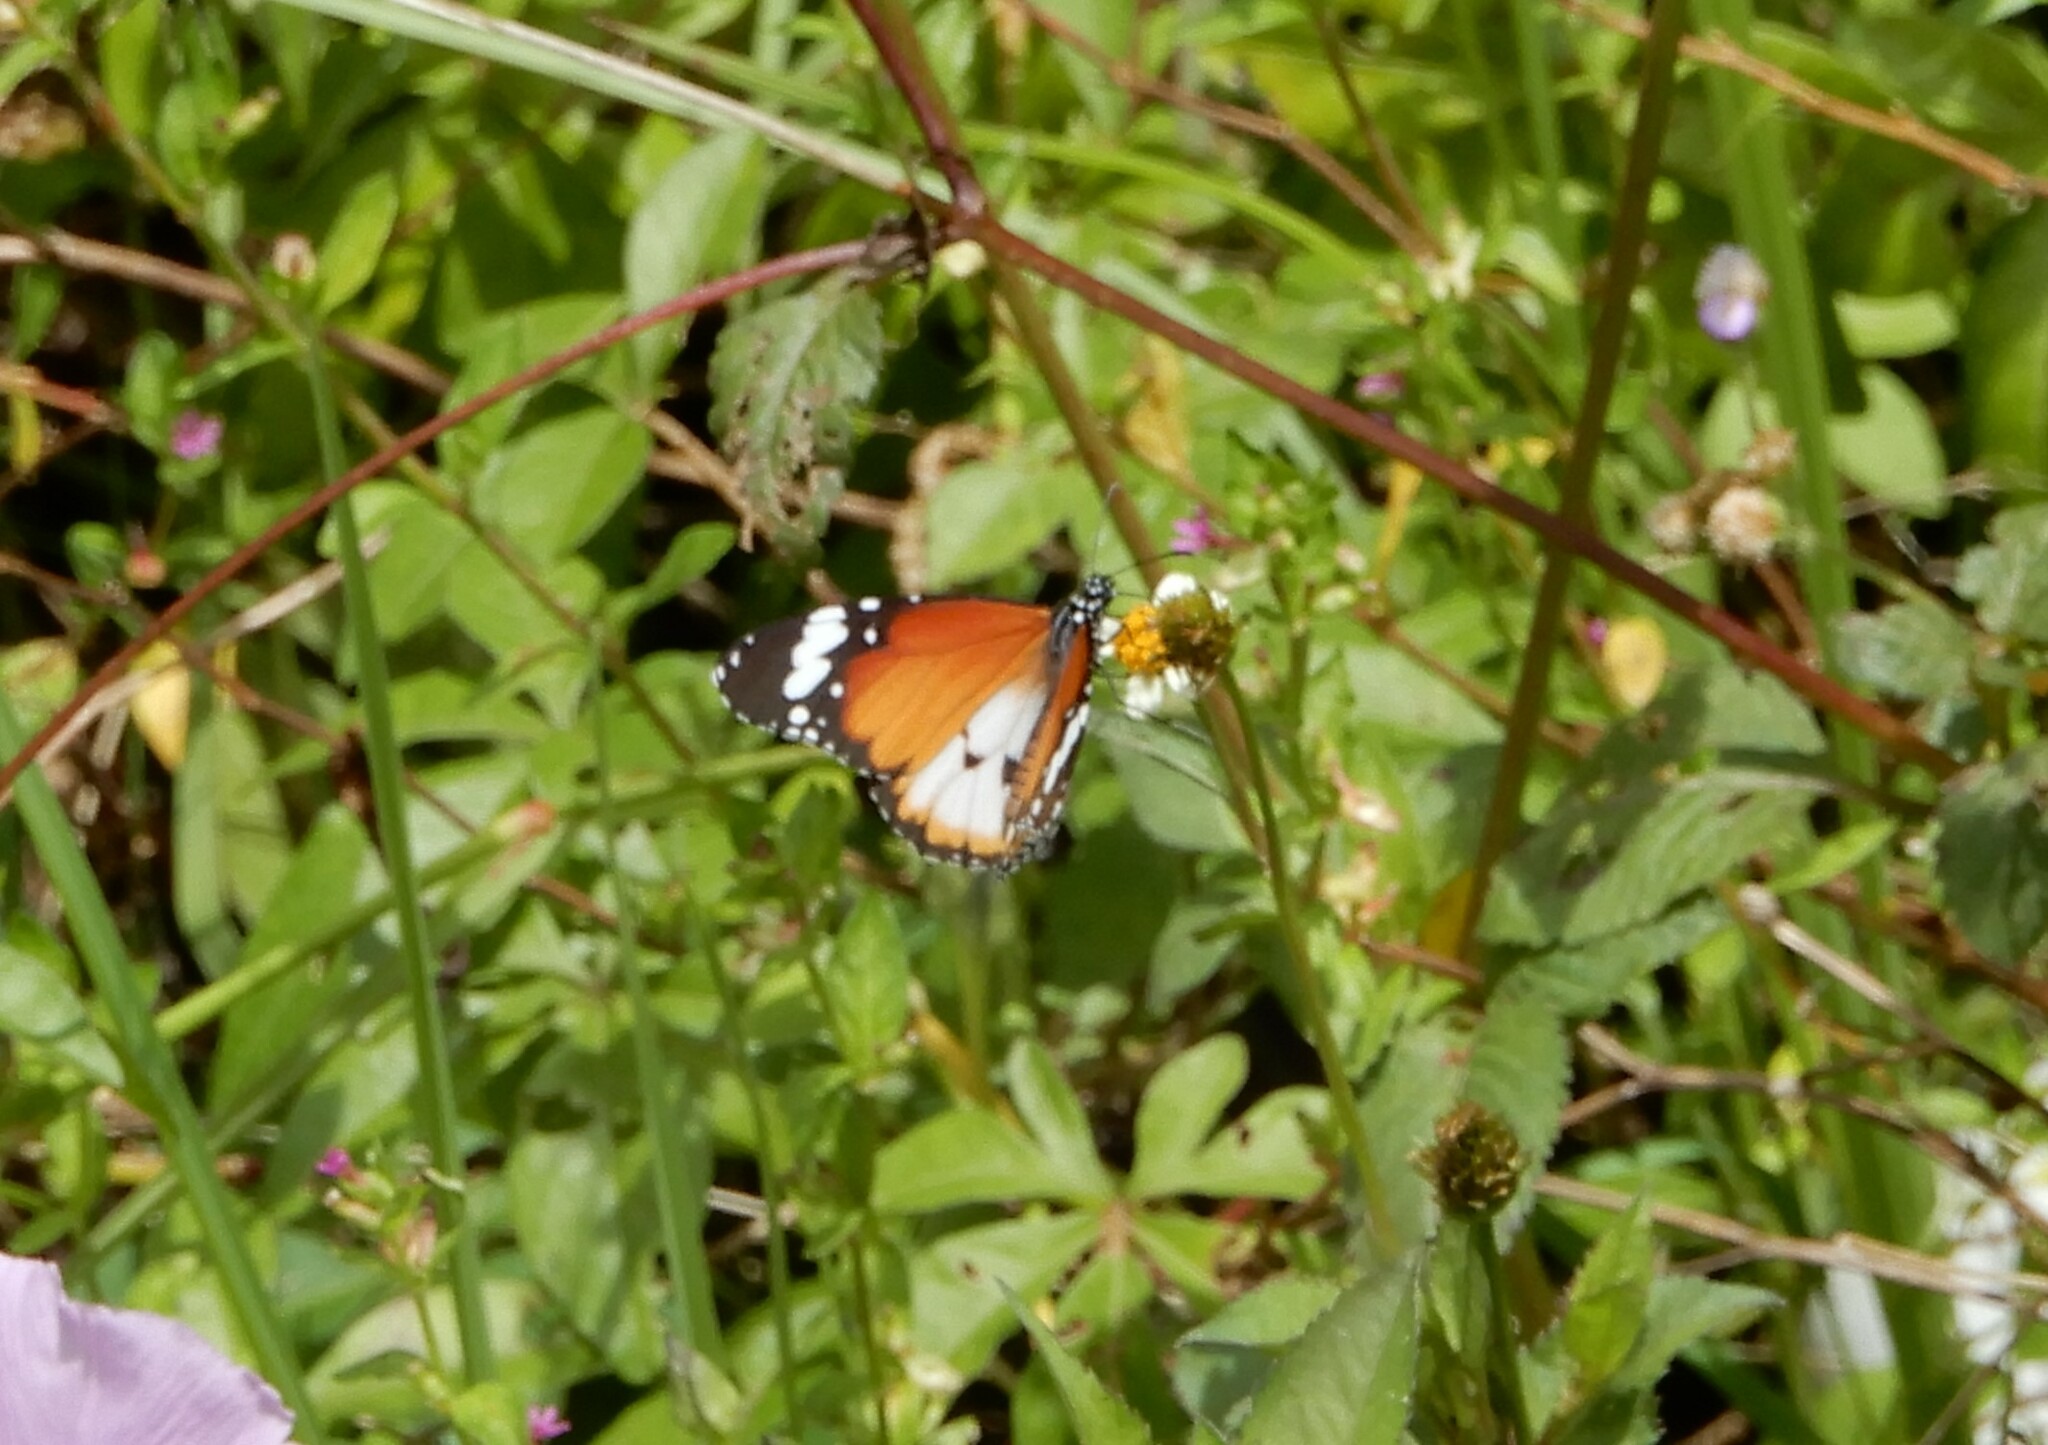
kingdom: Animalia
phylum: Arthropoda
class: Insecta
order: Lepidoptera
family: Nymphalidae
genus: Danaus
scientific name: Danaus chrysippus
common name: Plain tiger
